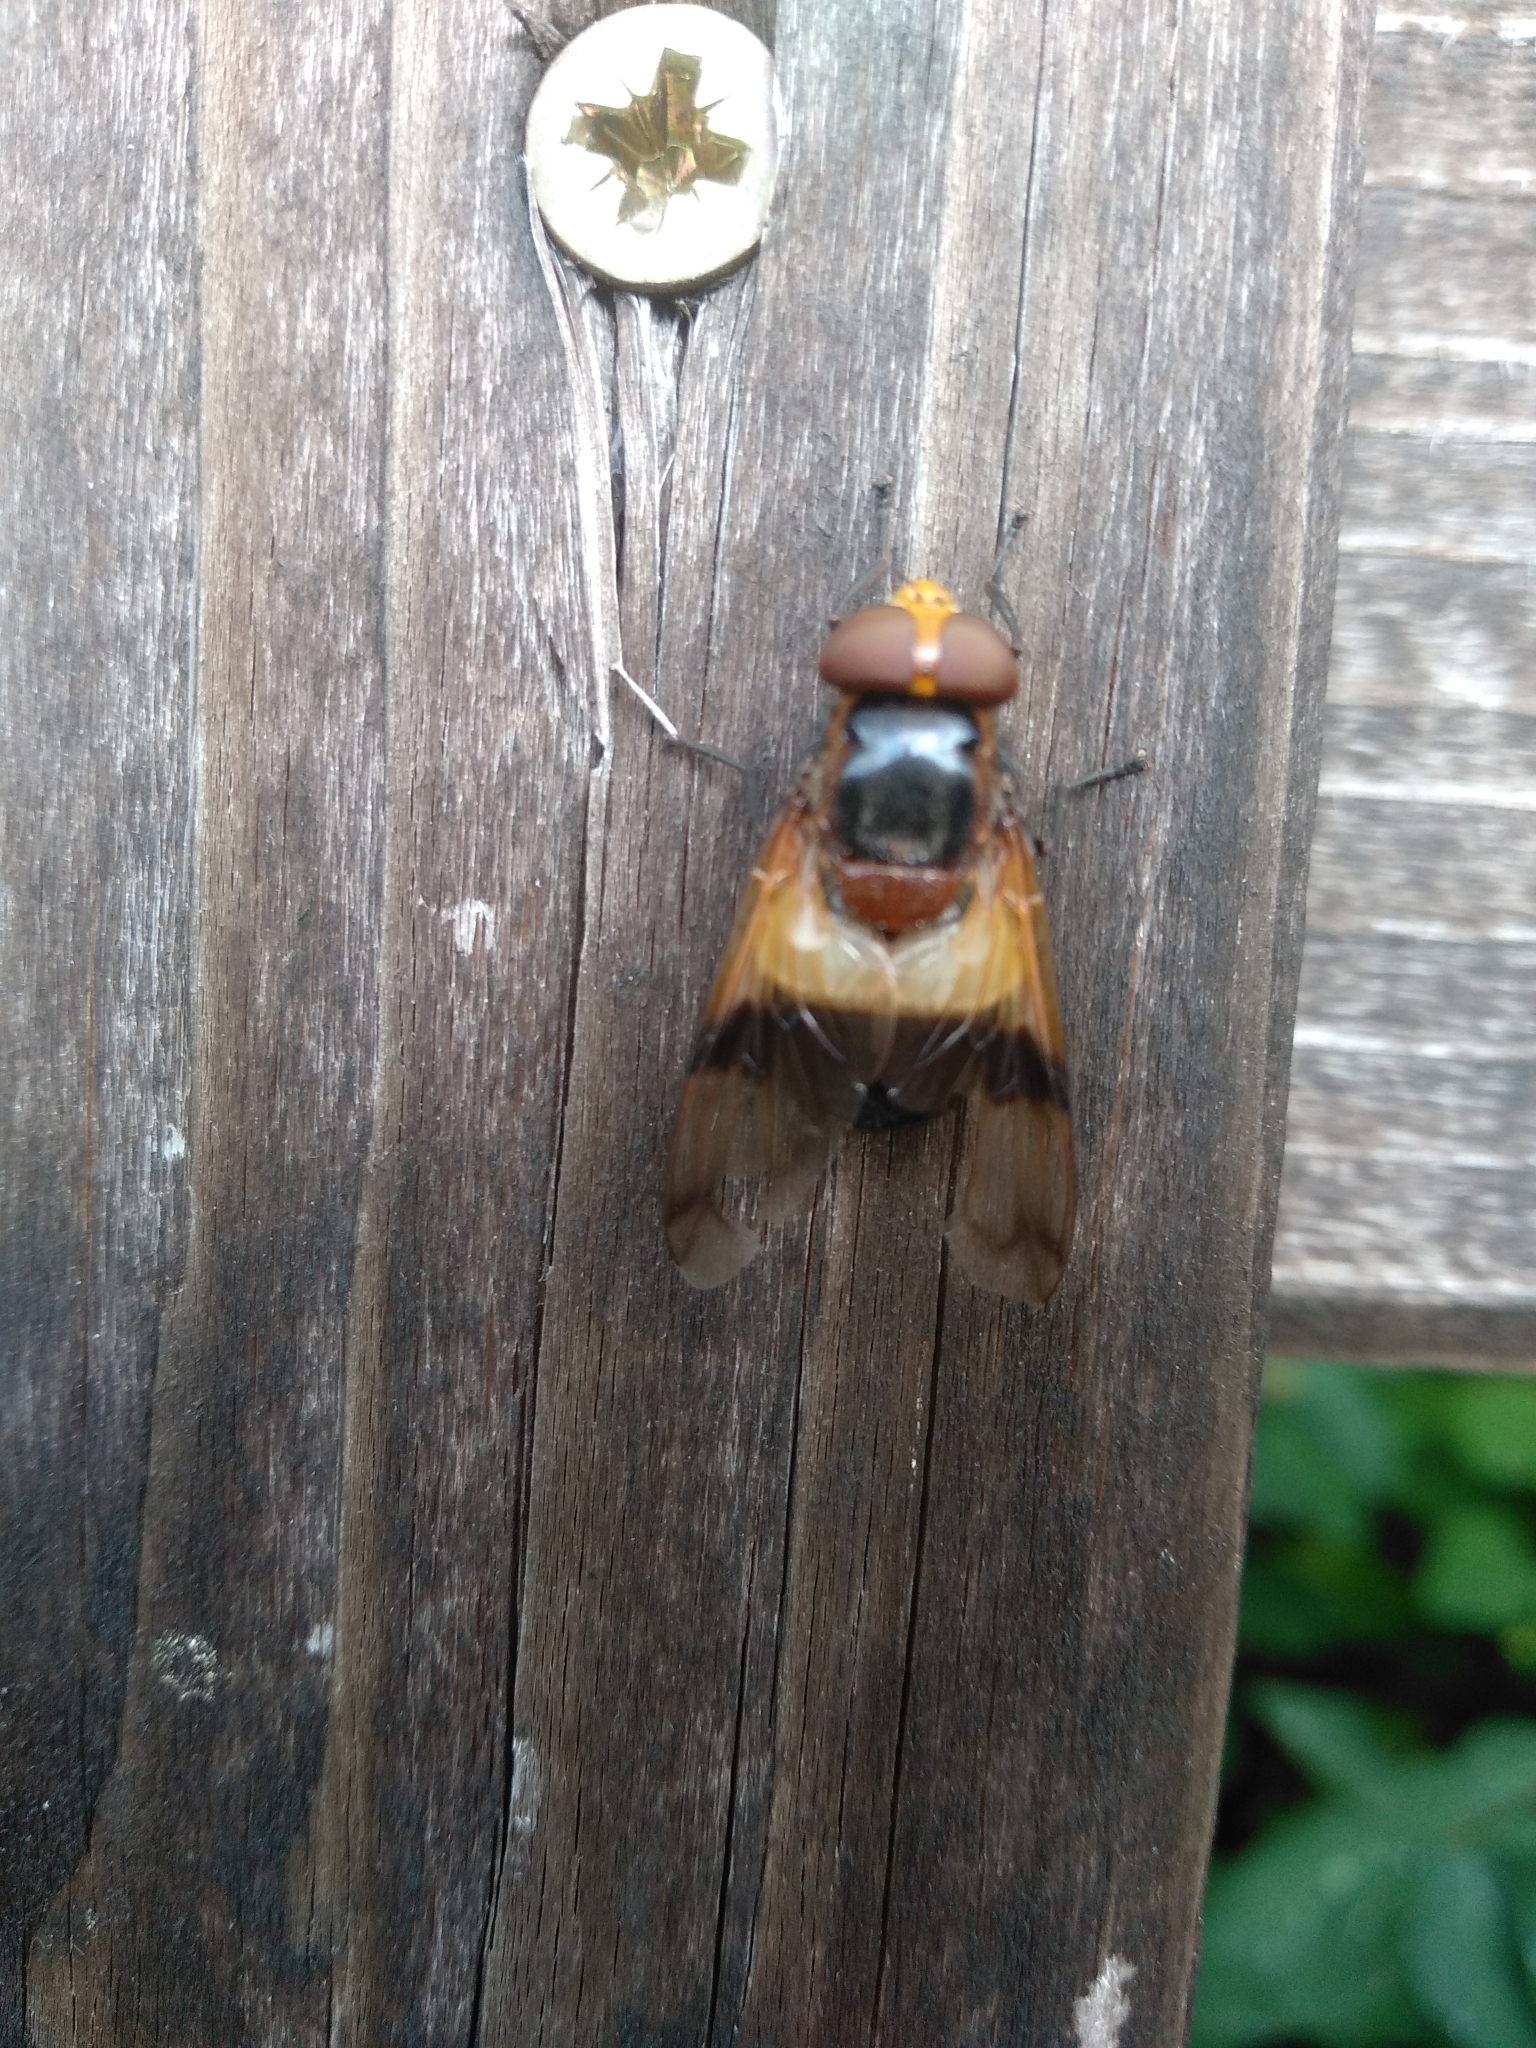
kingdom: Animalia
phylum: Arthropoda
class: Insecta
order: Diptera
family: Syrphidae
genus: Volucella
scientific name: Volucella pellucens
